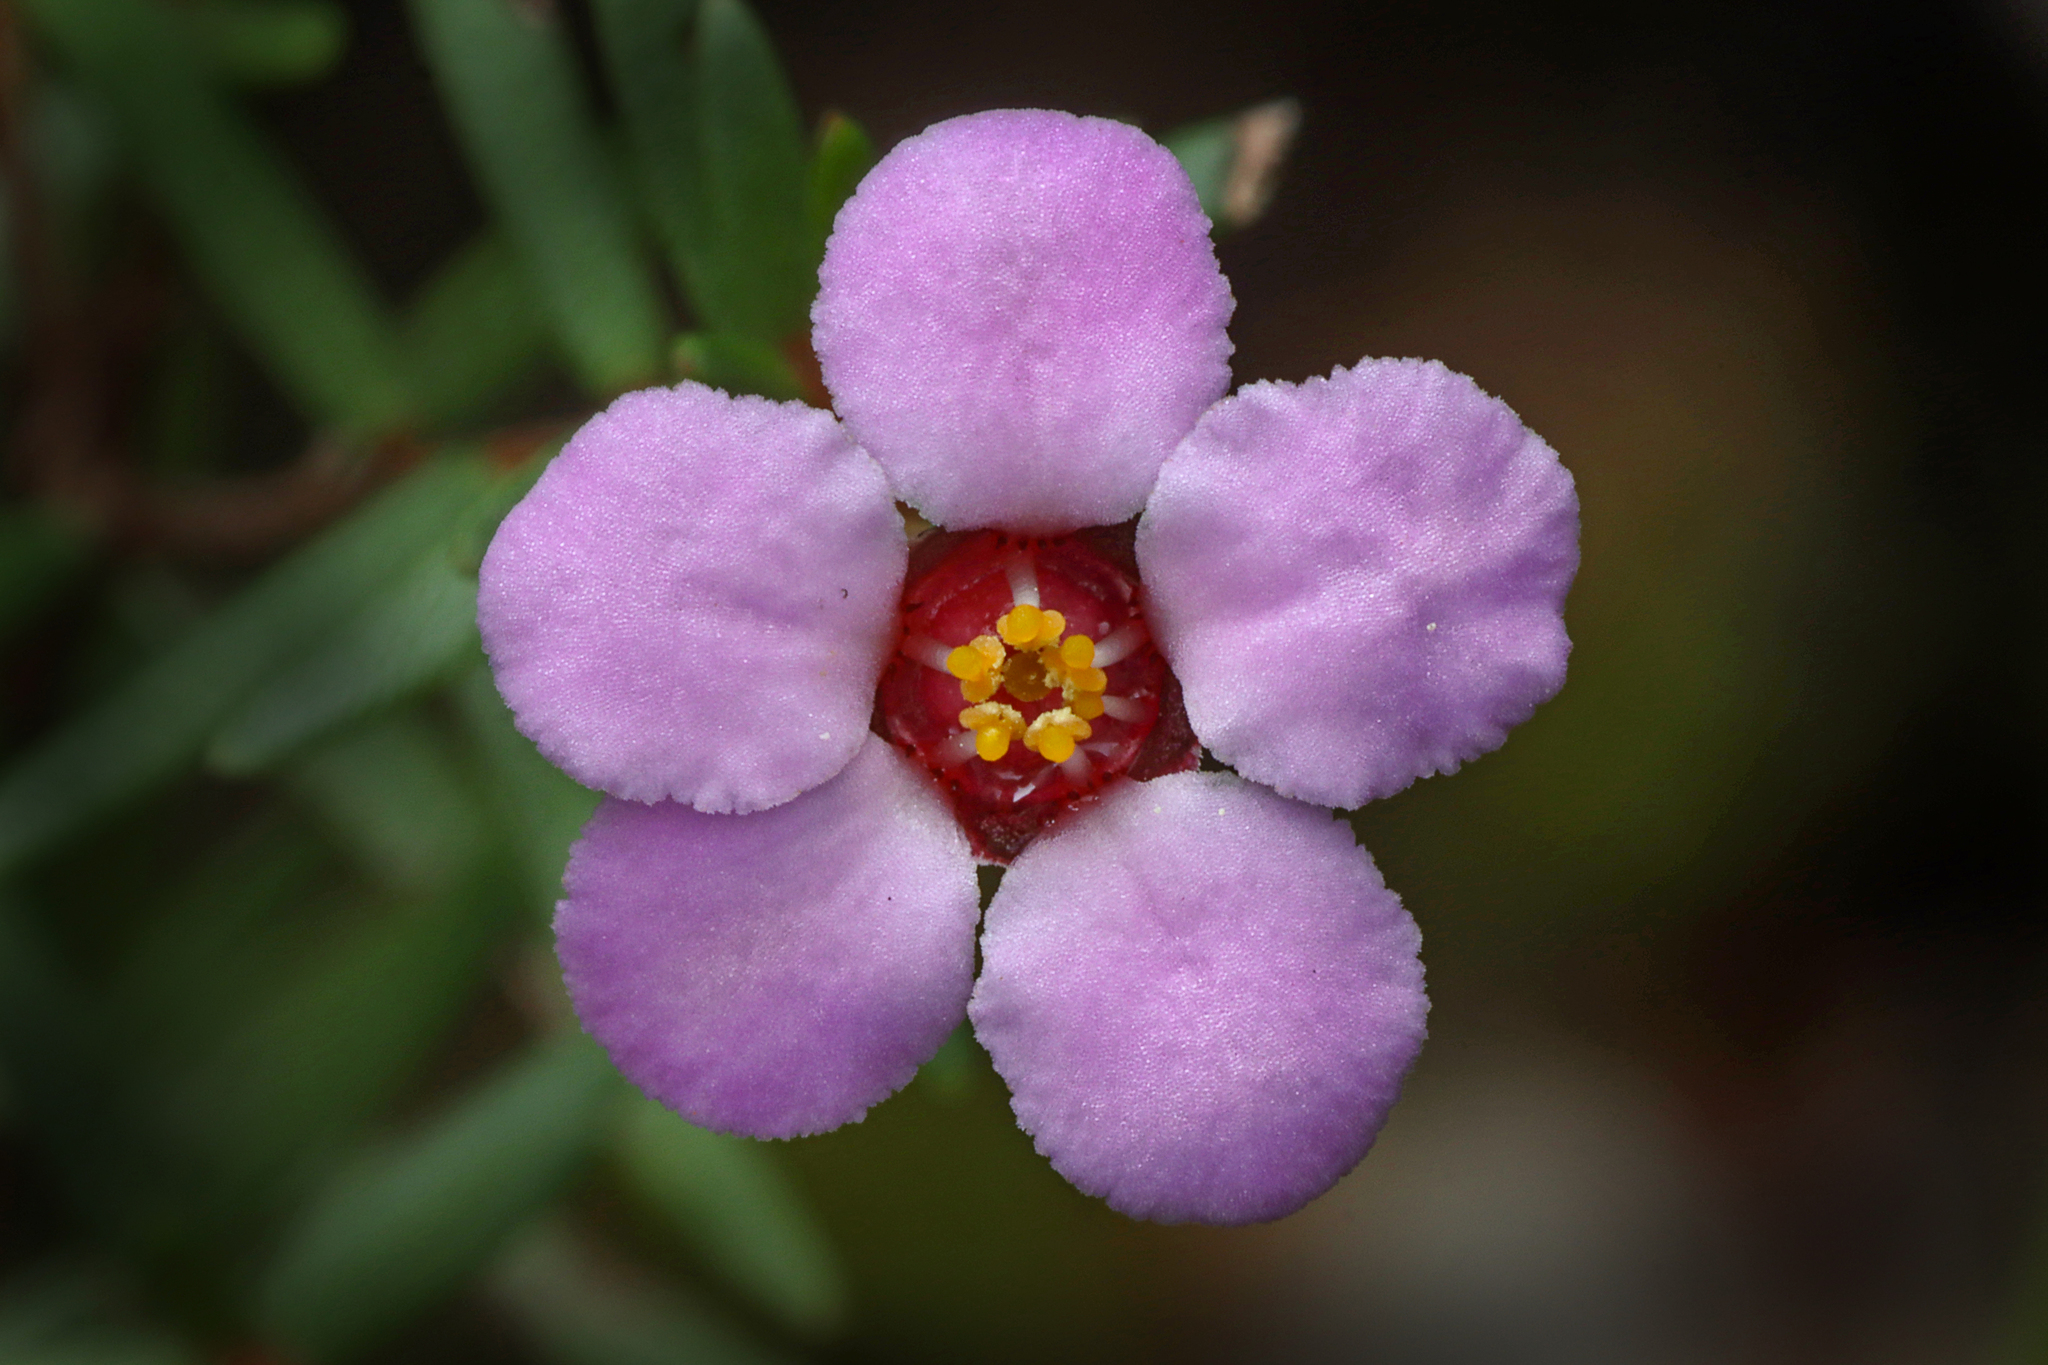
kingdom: Plantae
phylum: Tracheophyta
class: Magnoliopsida
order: Myrtales
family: Myrtaceae
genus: Euryomyrtus
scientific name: Euryomyrtus ramosissima
